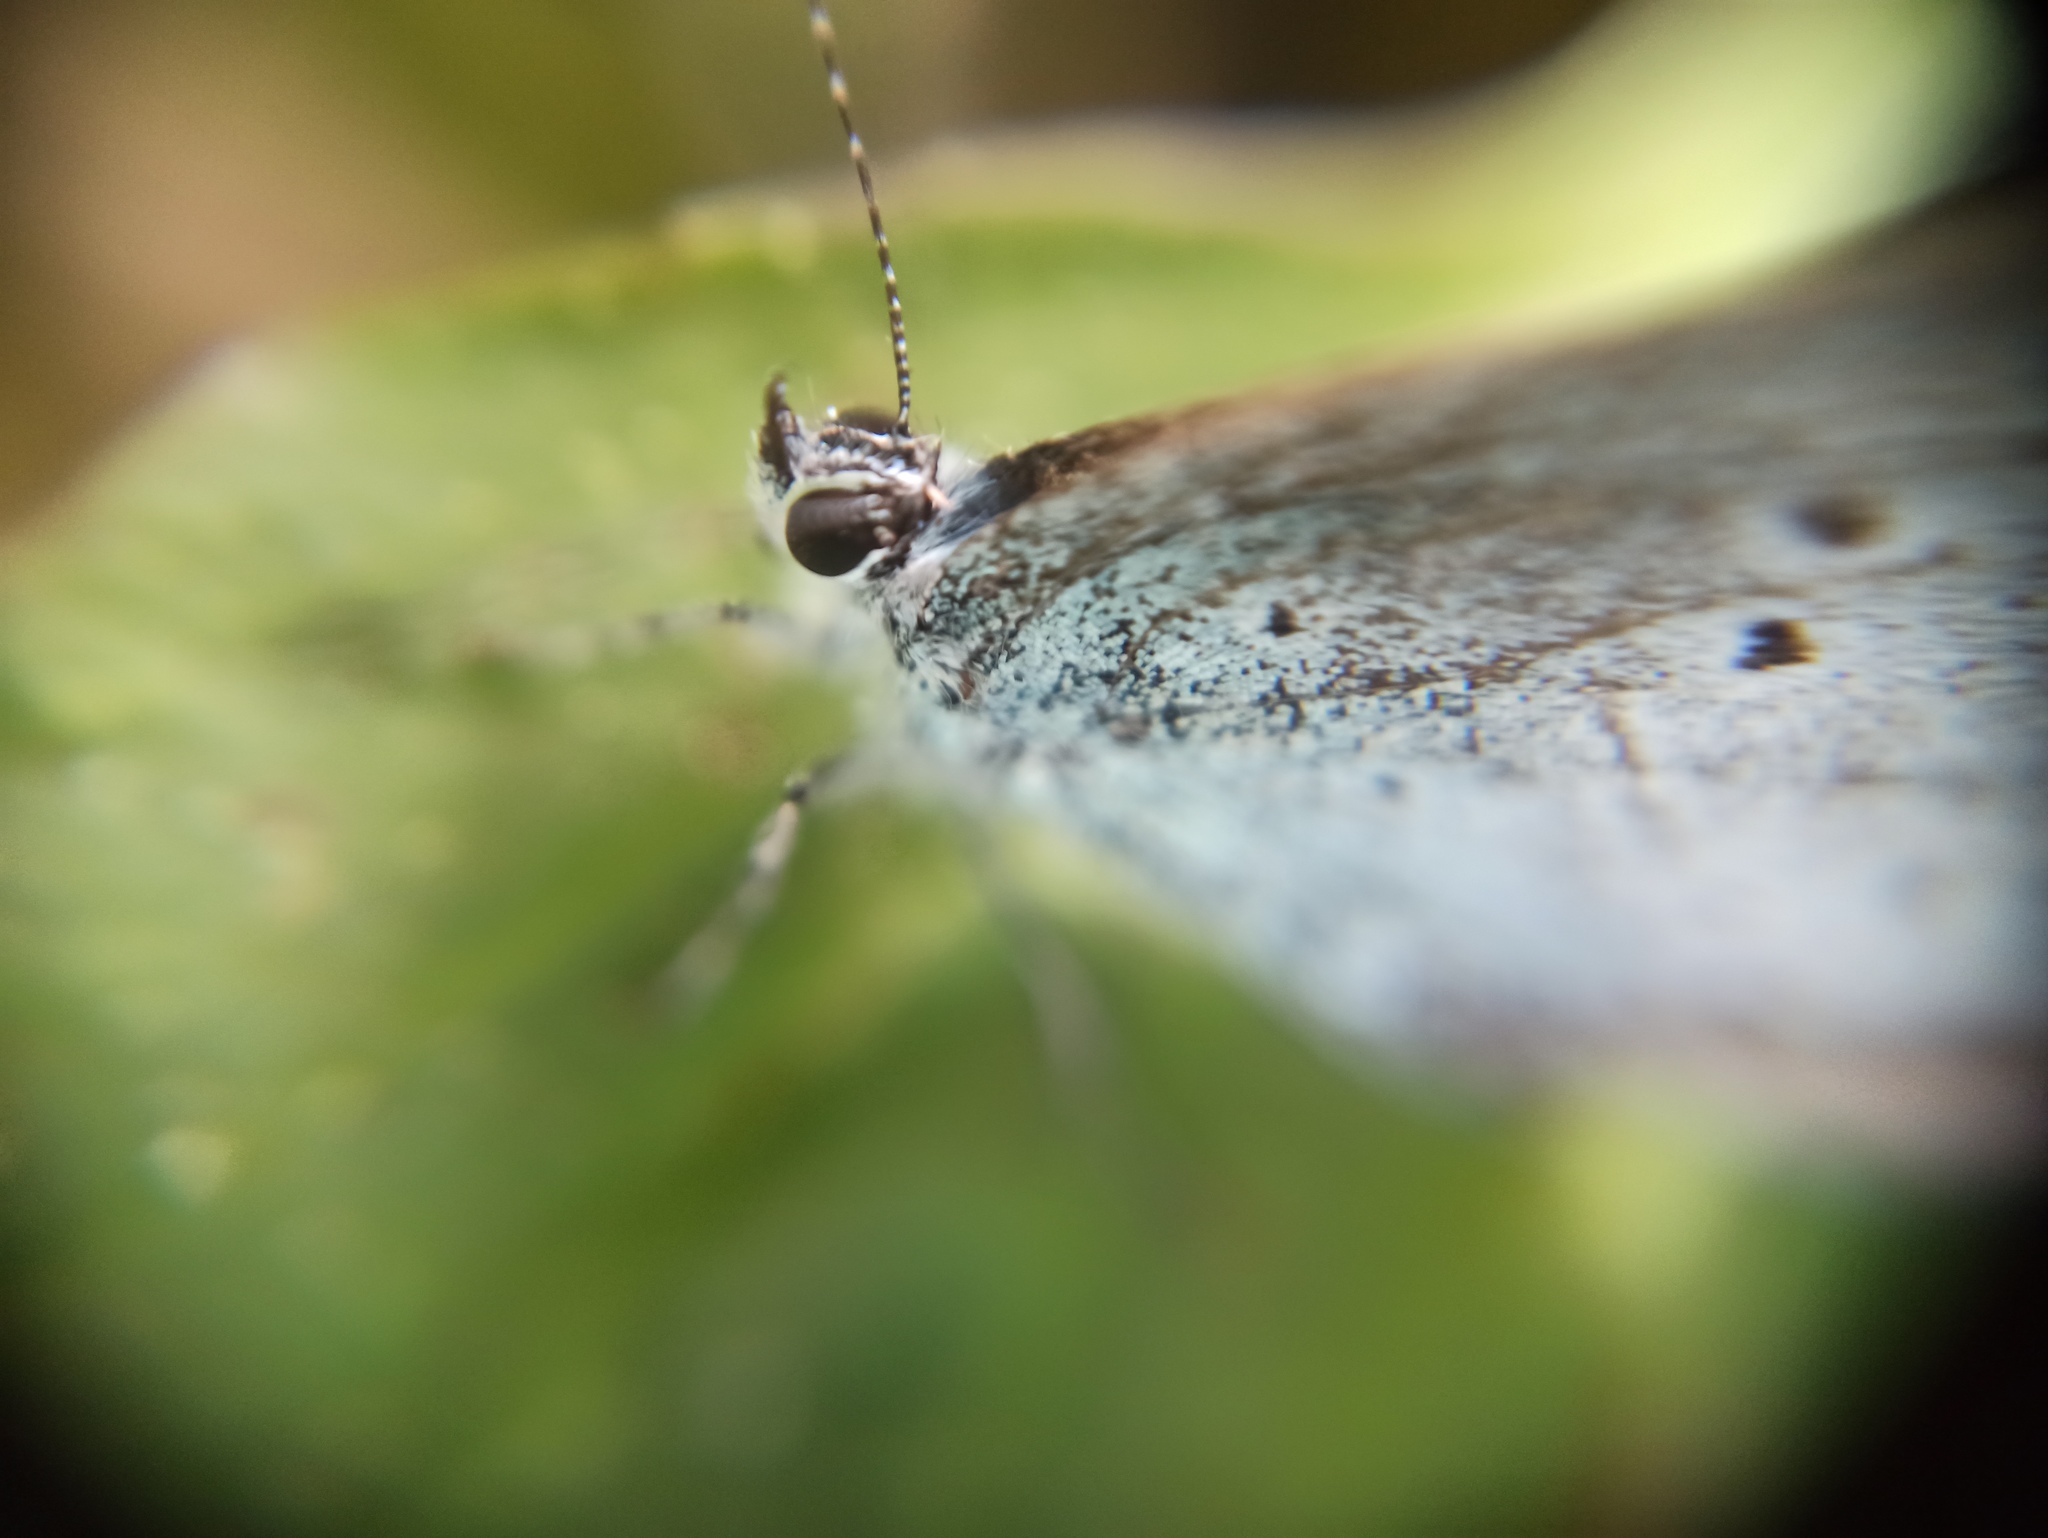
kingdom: Animalia
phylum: Arthropoda
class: Insecta
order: Lepidoptera
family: Lycaenidae
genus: Celastrina
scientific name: Celastrina argiolus
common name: Holly blue
